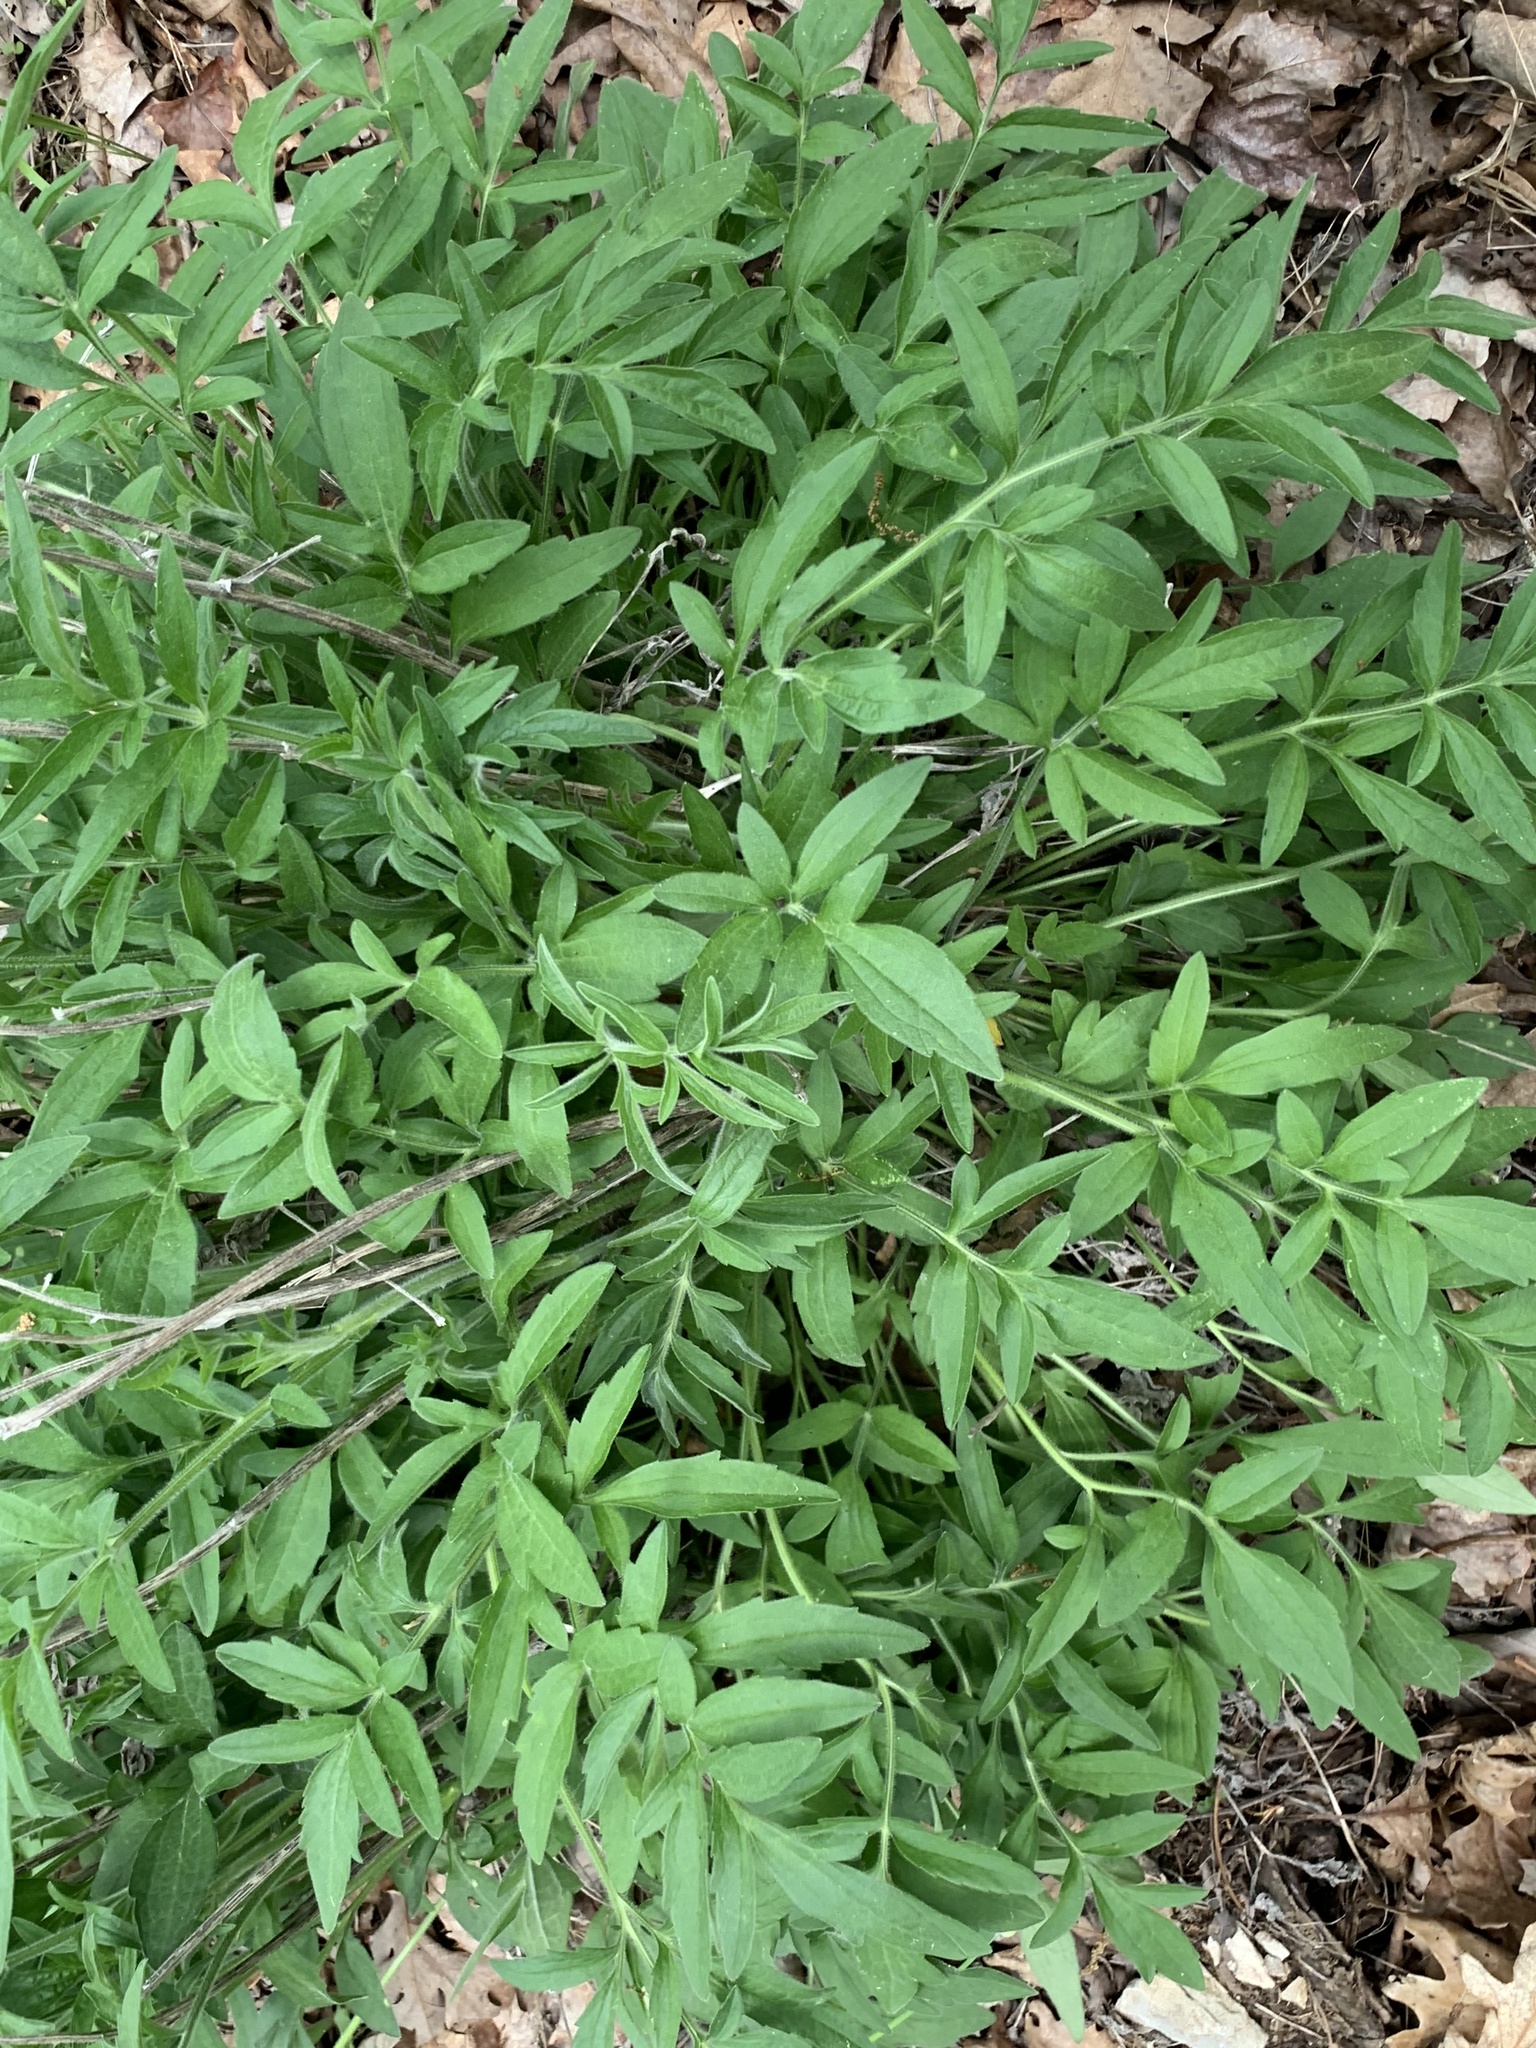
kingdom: Plantae
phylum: Tracheophyta
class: Magnoliopsida
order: Asterales
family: Asteraceae
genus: Ratibida
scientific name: Ratibida pinnata
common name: Drooping prairie-coneflower
